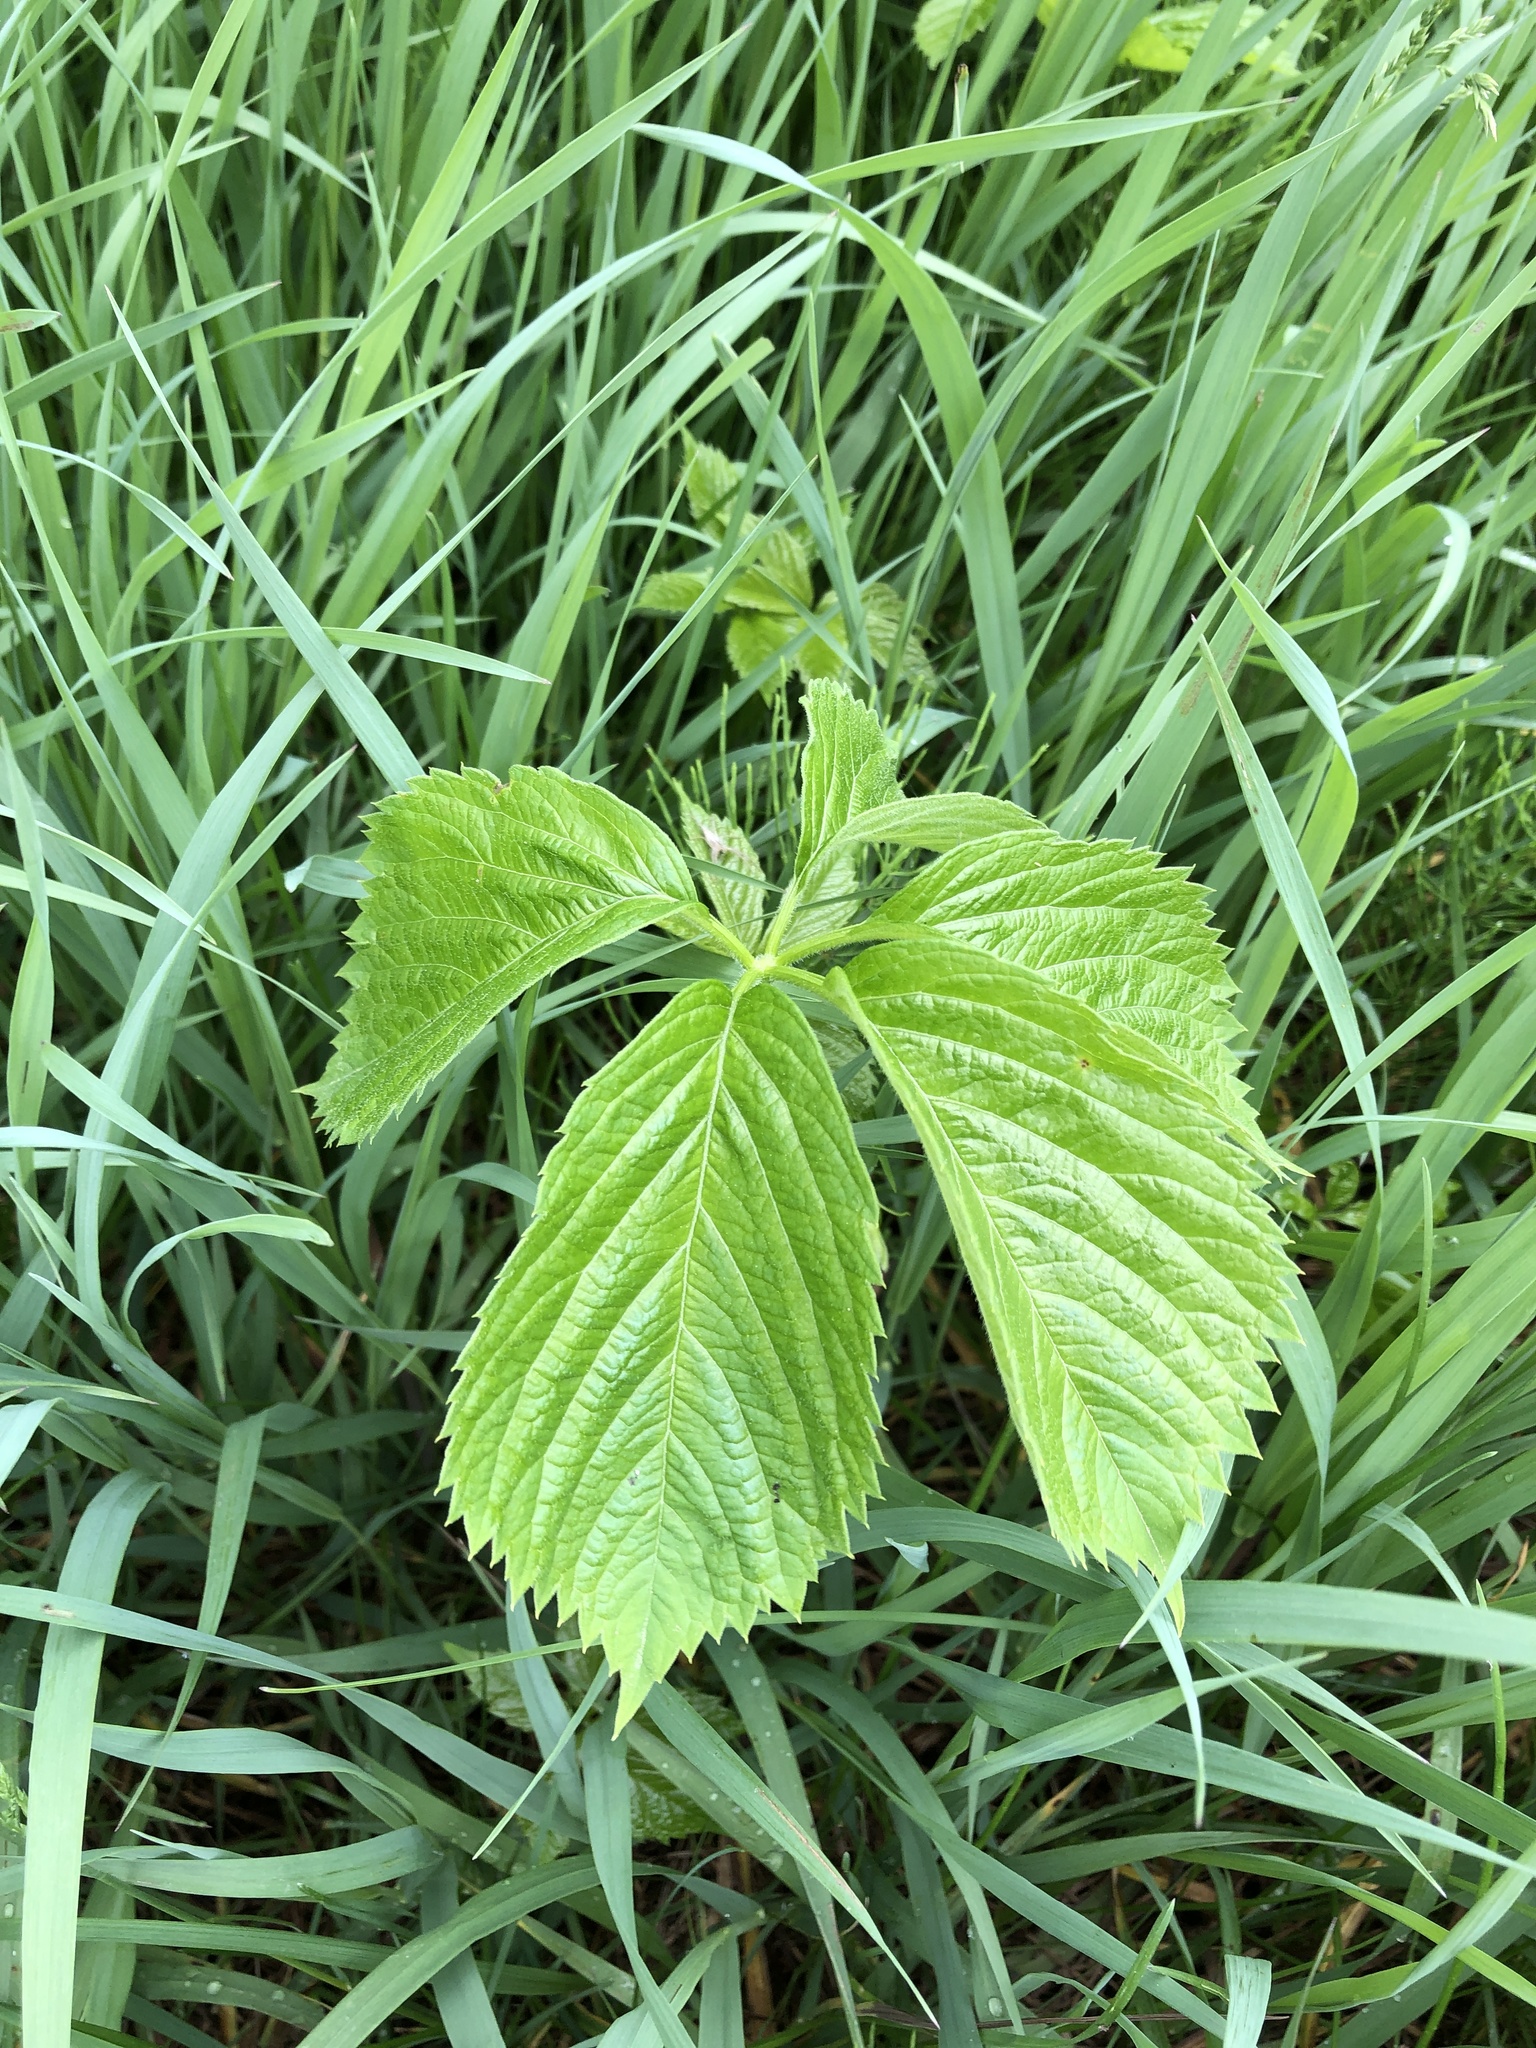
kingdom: Plantae
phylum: Tracheophyta
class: Magnoliopsida
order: Vitales
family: Vitaceae
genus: Parthenocissus
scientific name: Parthenocissus inserta
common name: False virginia-creeper
